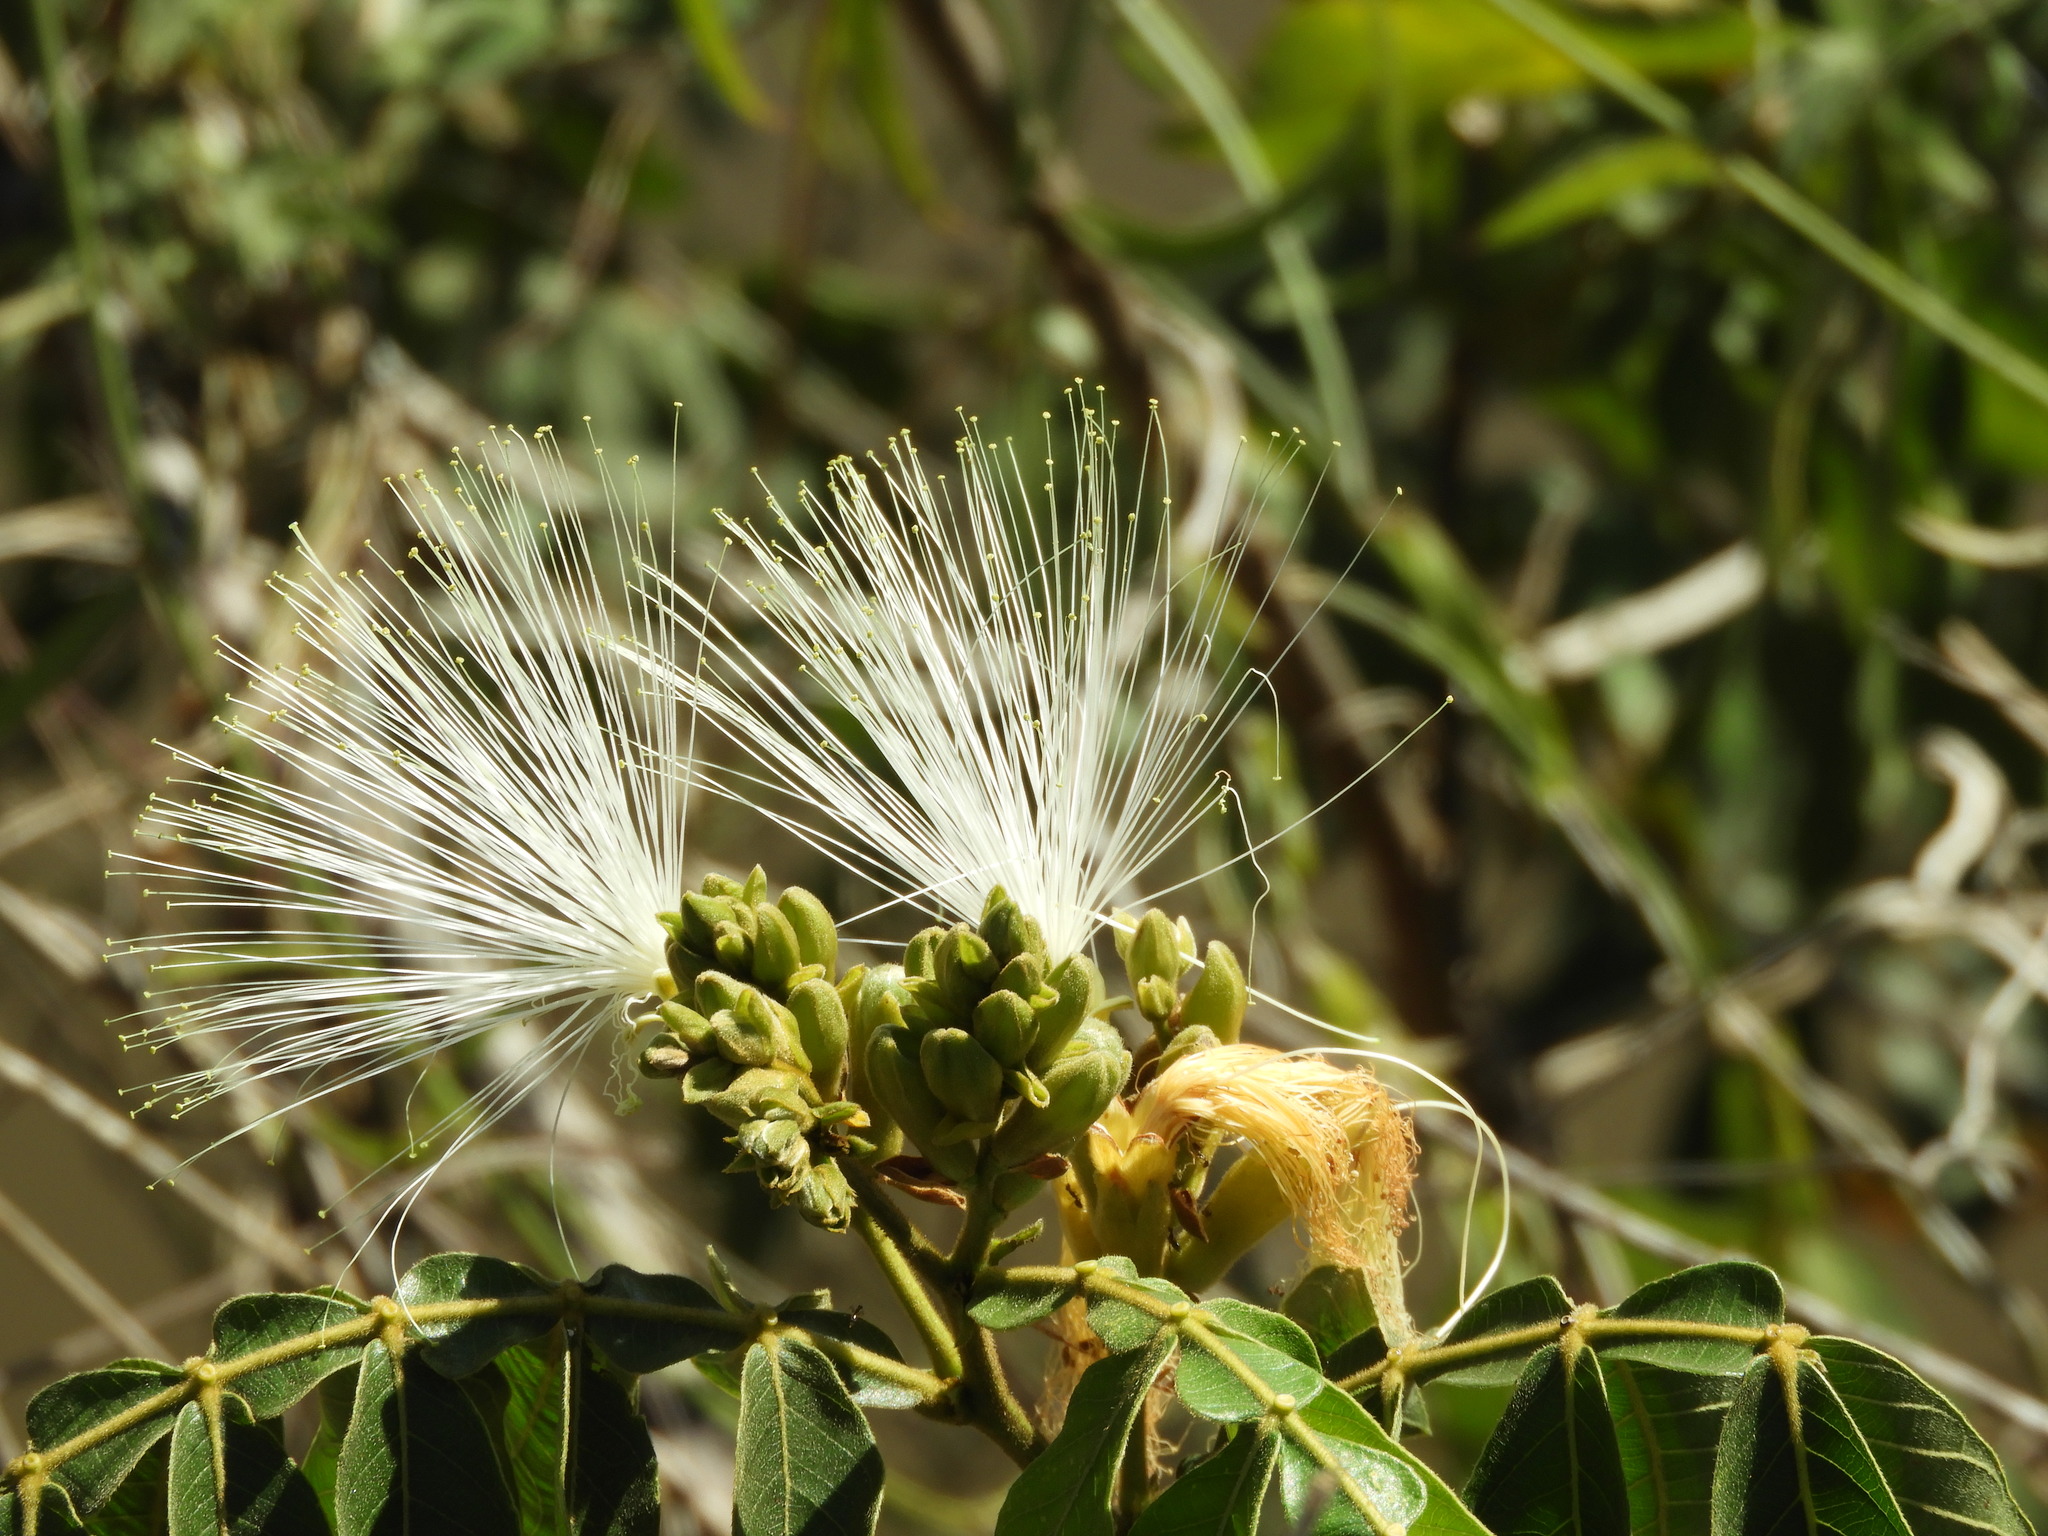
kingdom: Plantae
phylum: Tracheophyta
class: Magnoliopsida
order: Fabales
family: Fabaceae
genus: Inga
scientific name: Inga vera
